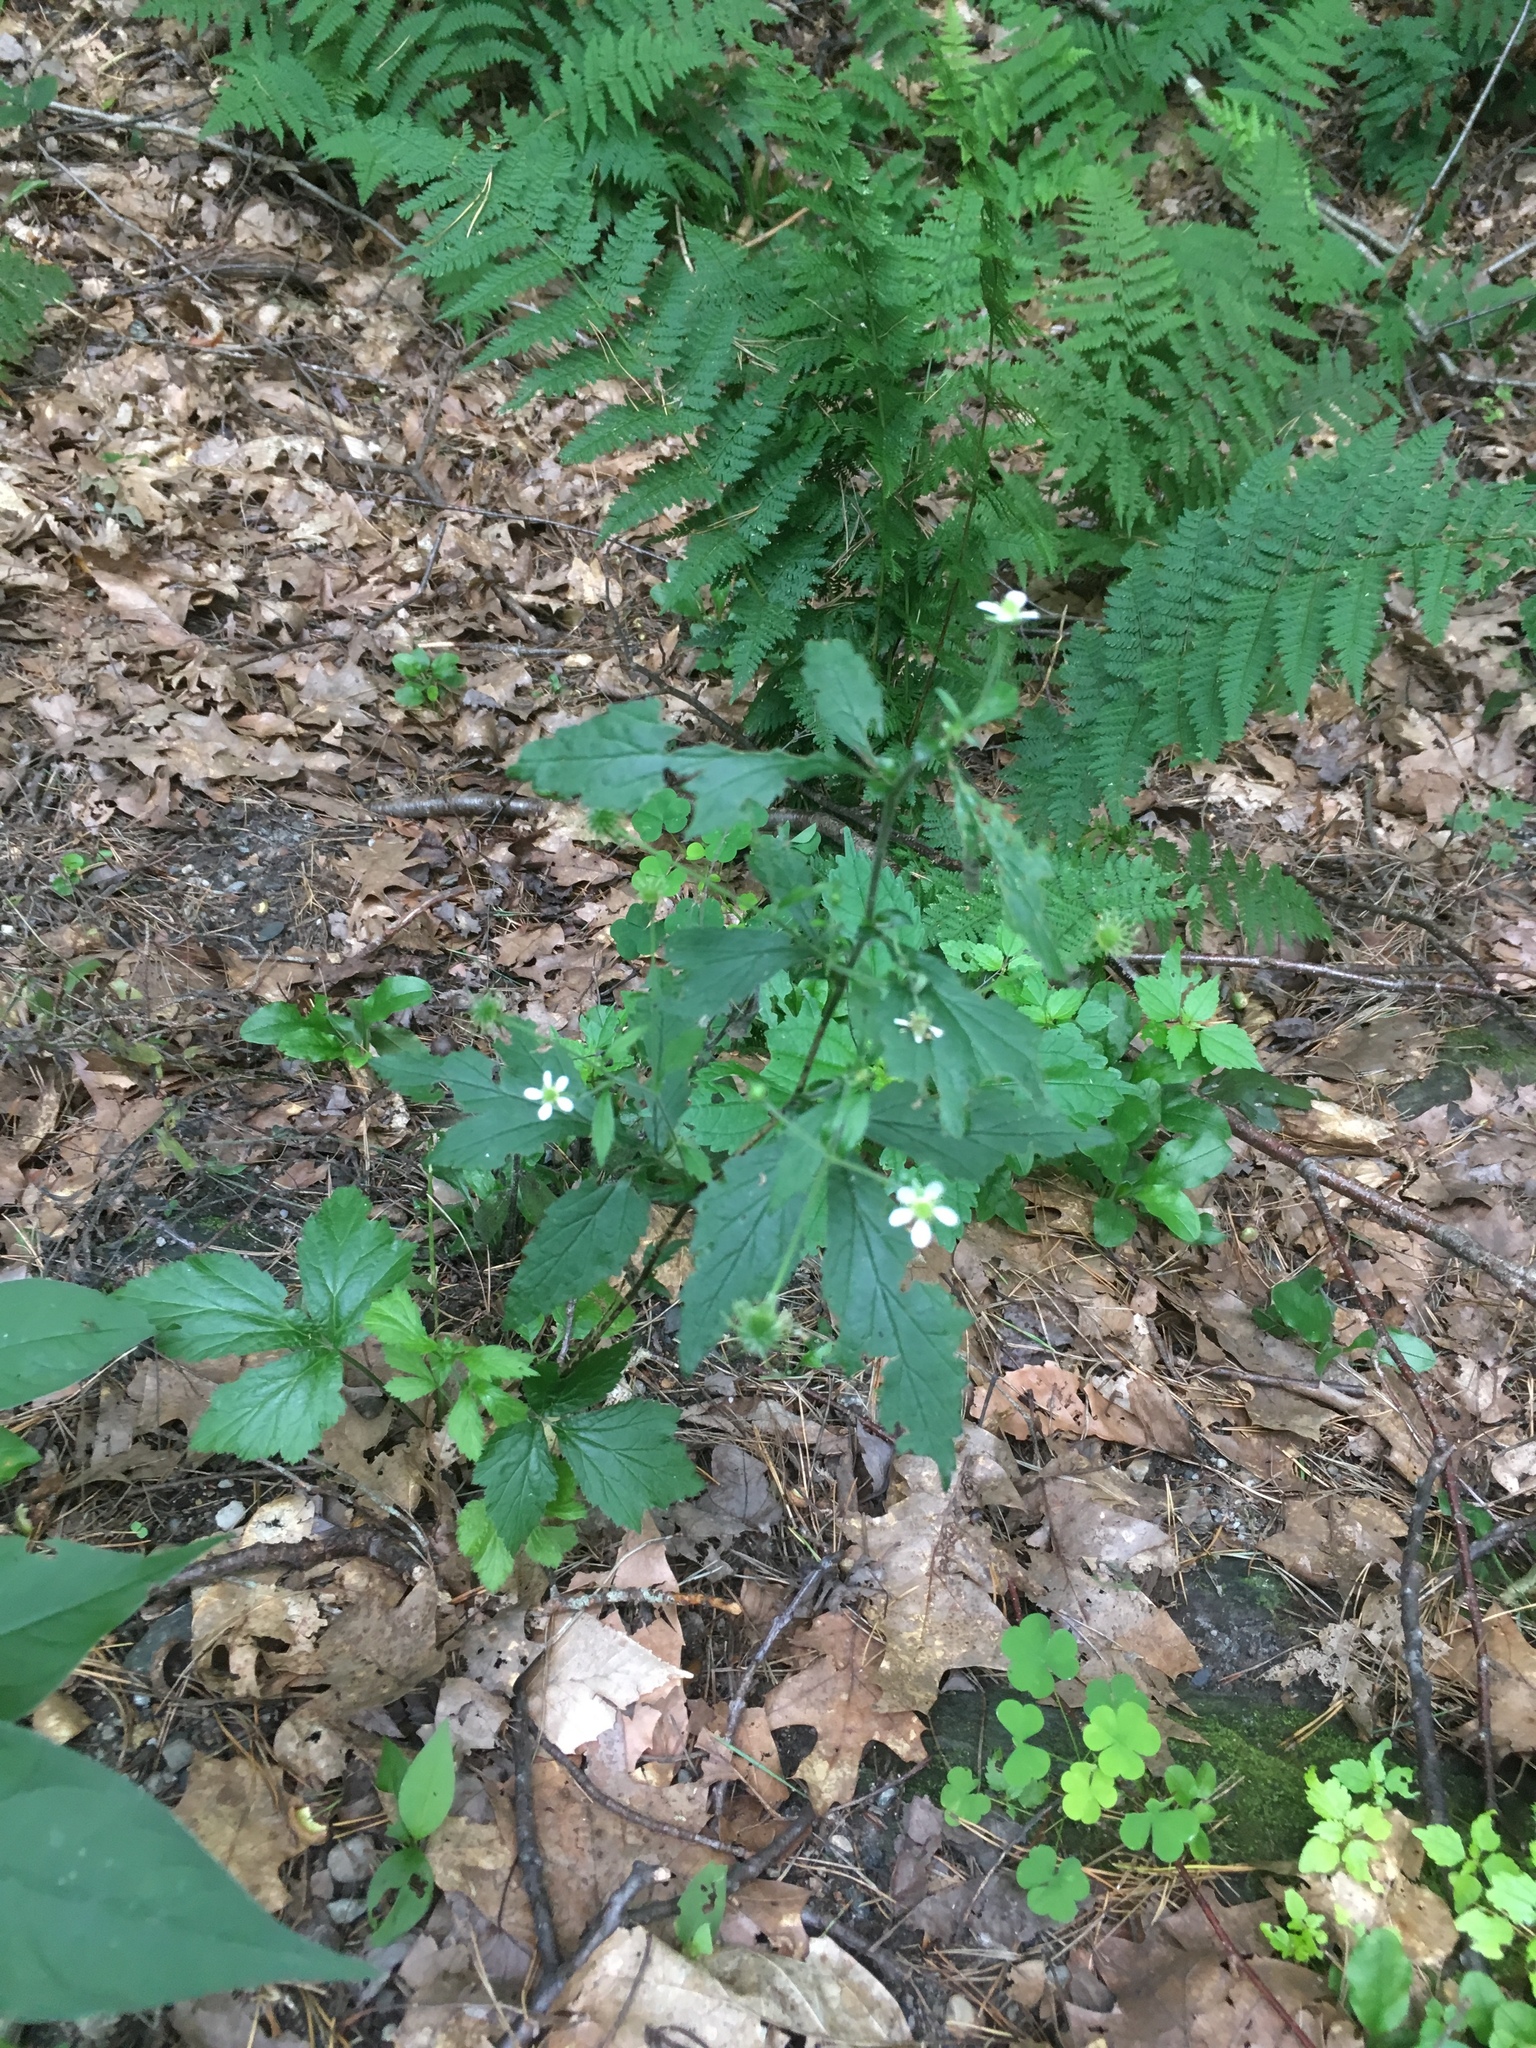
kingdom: Plantae
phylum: Tracheophyta
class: Magnoliopsida
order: Rosales
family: Rosaceae
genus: Geum
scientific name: Geum canadense
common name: White avens
